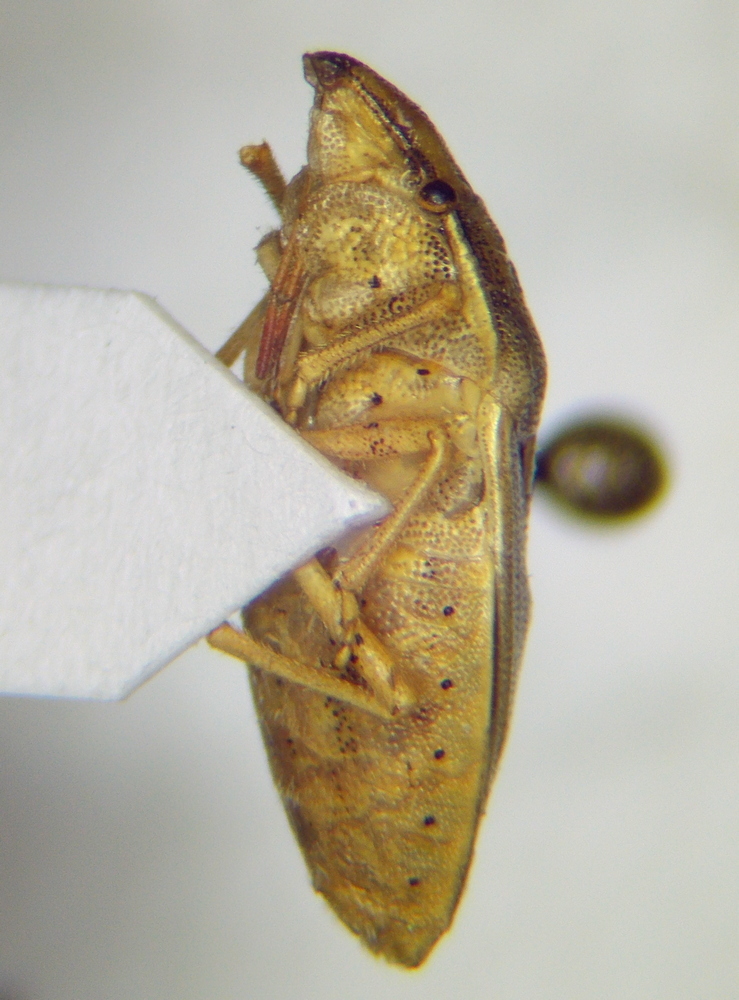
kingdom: Animalia
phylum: Arthropoda
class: Insecta
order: Hemiptera
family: Pentatomidae
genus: Aelia
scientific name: Aelia acuminata
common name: Bishop's mitre
